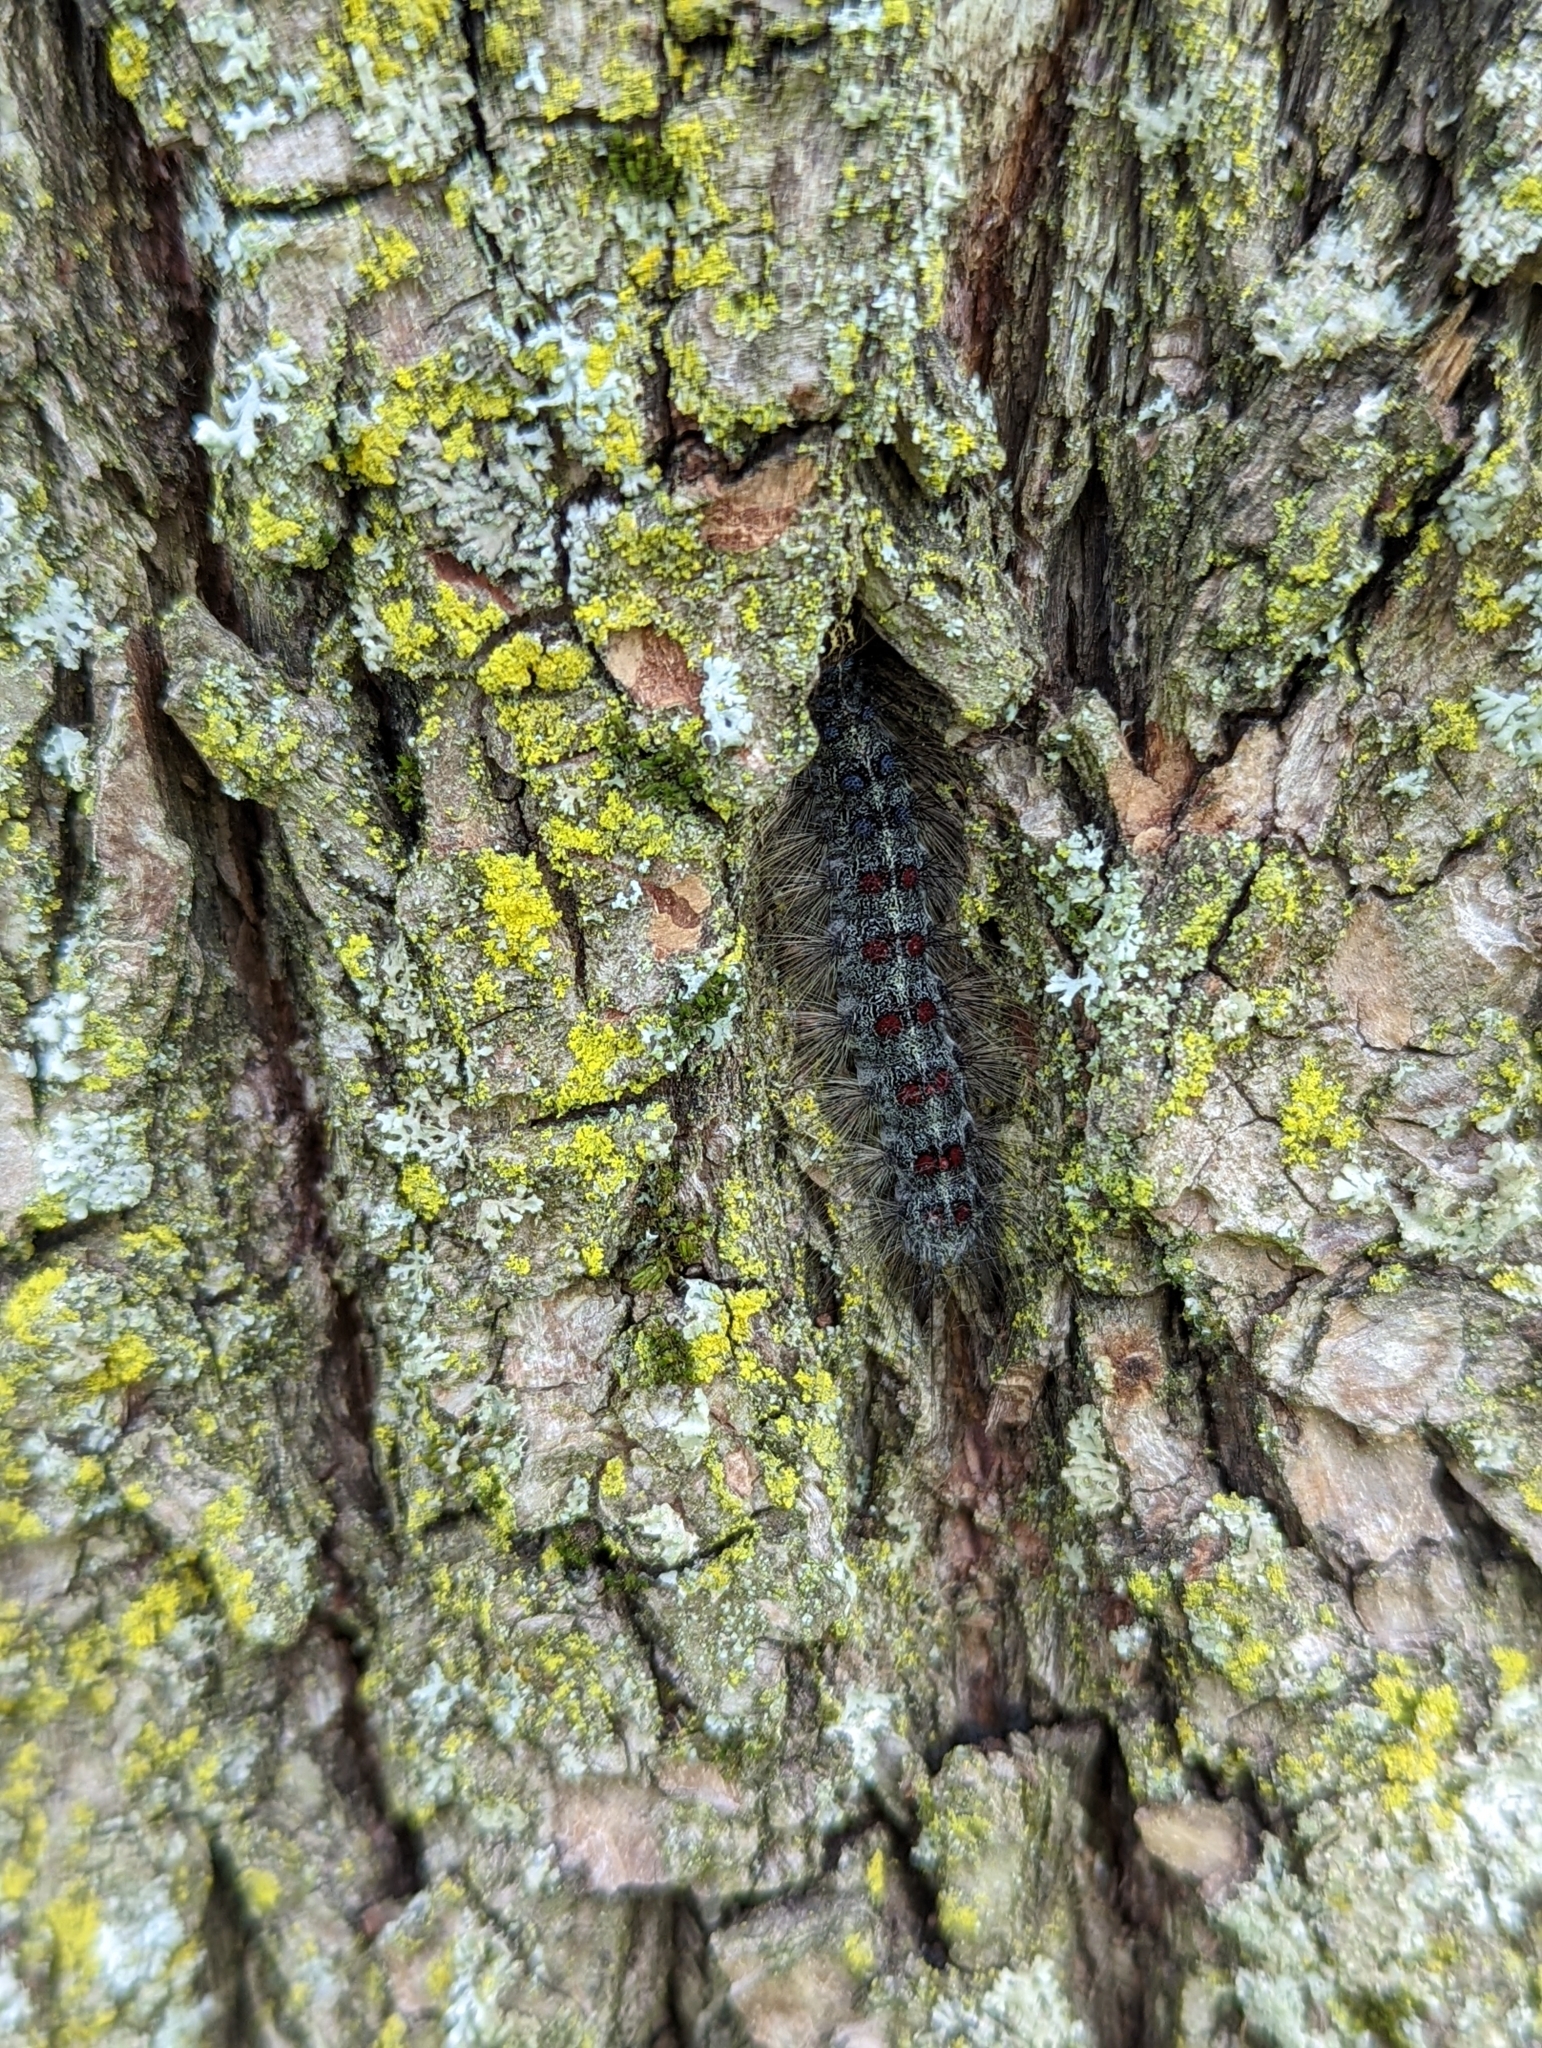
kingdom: Animalia
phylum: Arthropoda
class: Insecta
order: Lepidoptera
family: Erebidae
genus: Lymantria
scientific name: Lymantria dispar
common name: Gypsy moth
